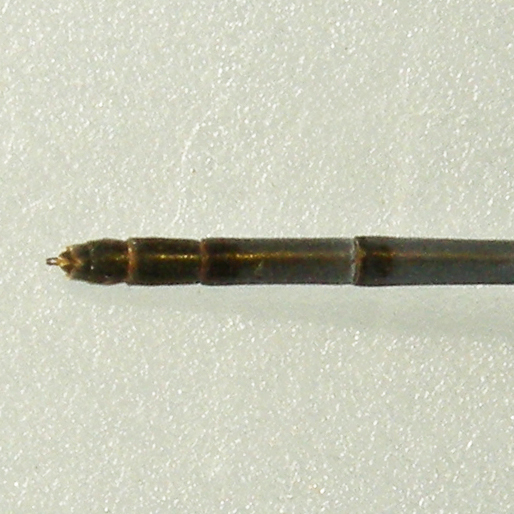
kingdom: Animalia
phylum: Arthropoda
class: Insecta
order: Odonata
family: Coenagrionidae
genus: Ischnura
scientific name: Ischnura posita
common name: Fragile forktail
